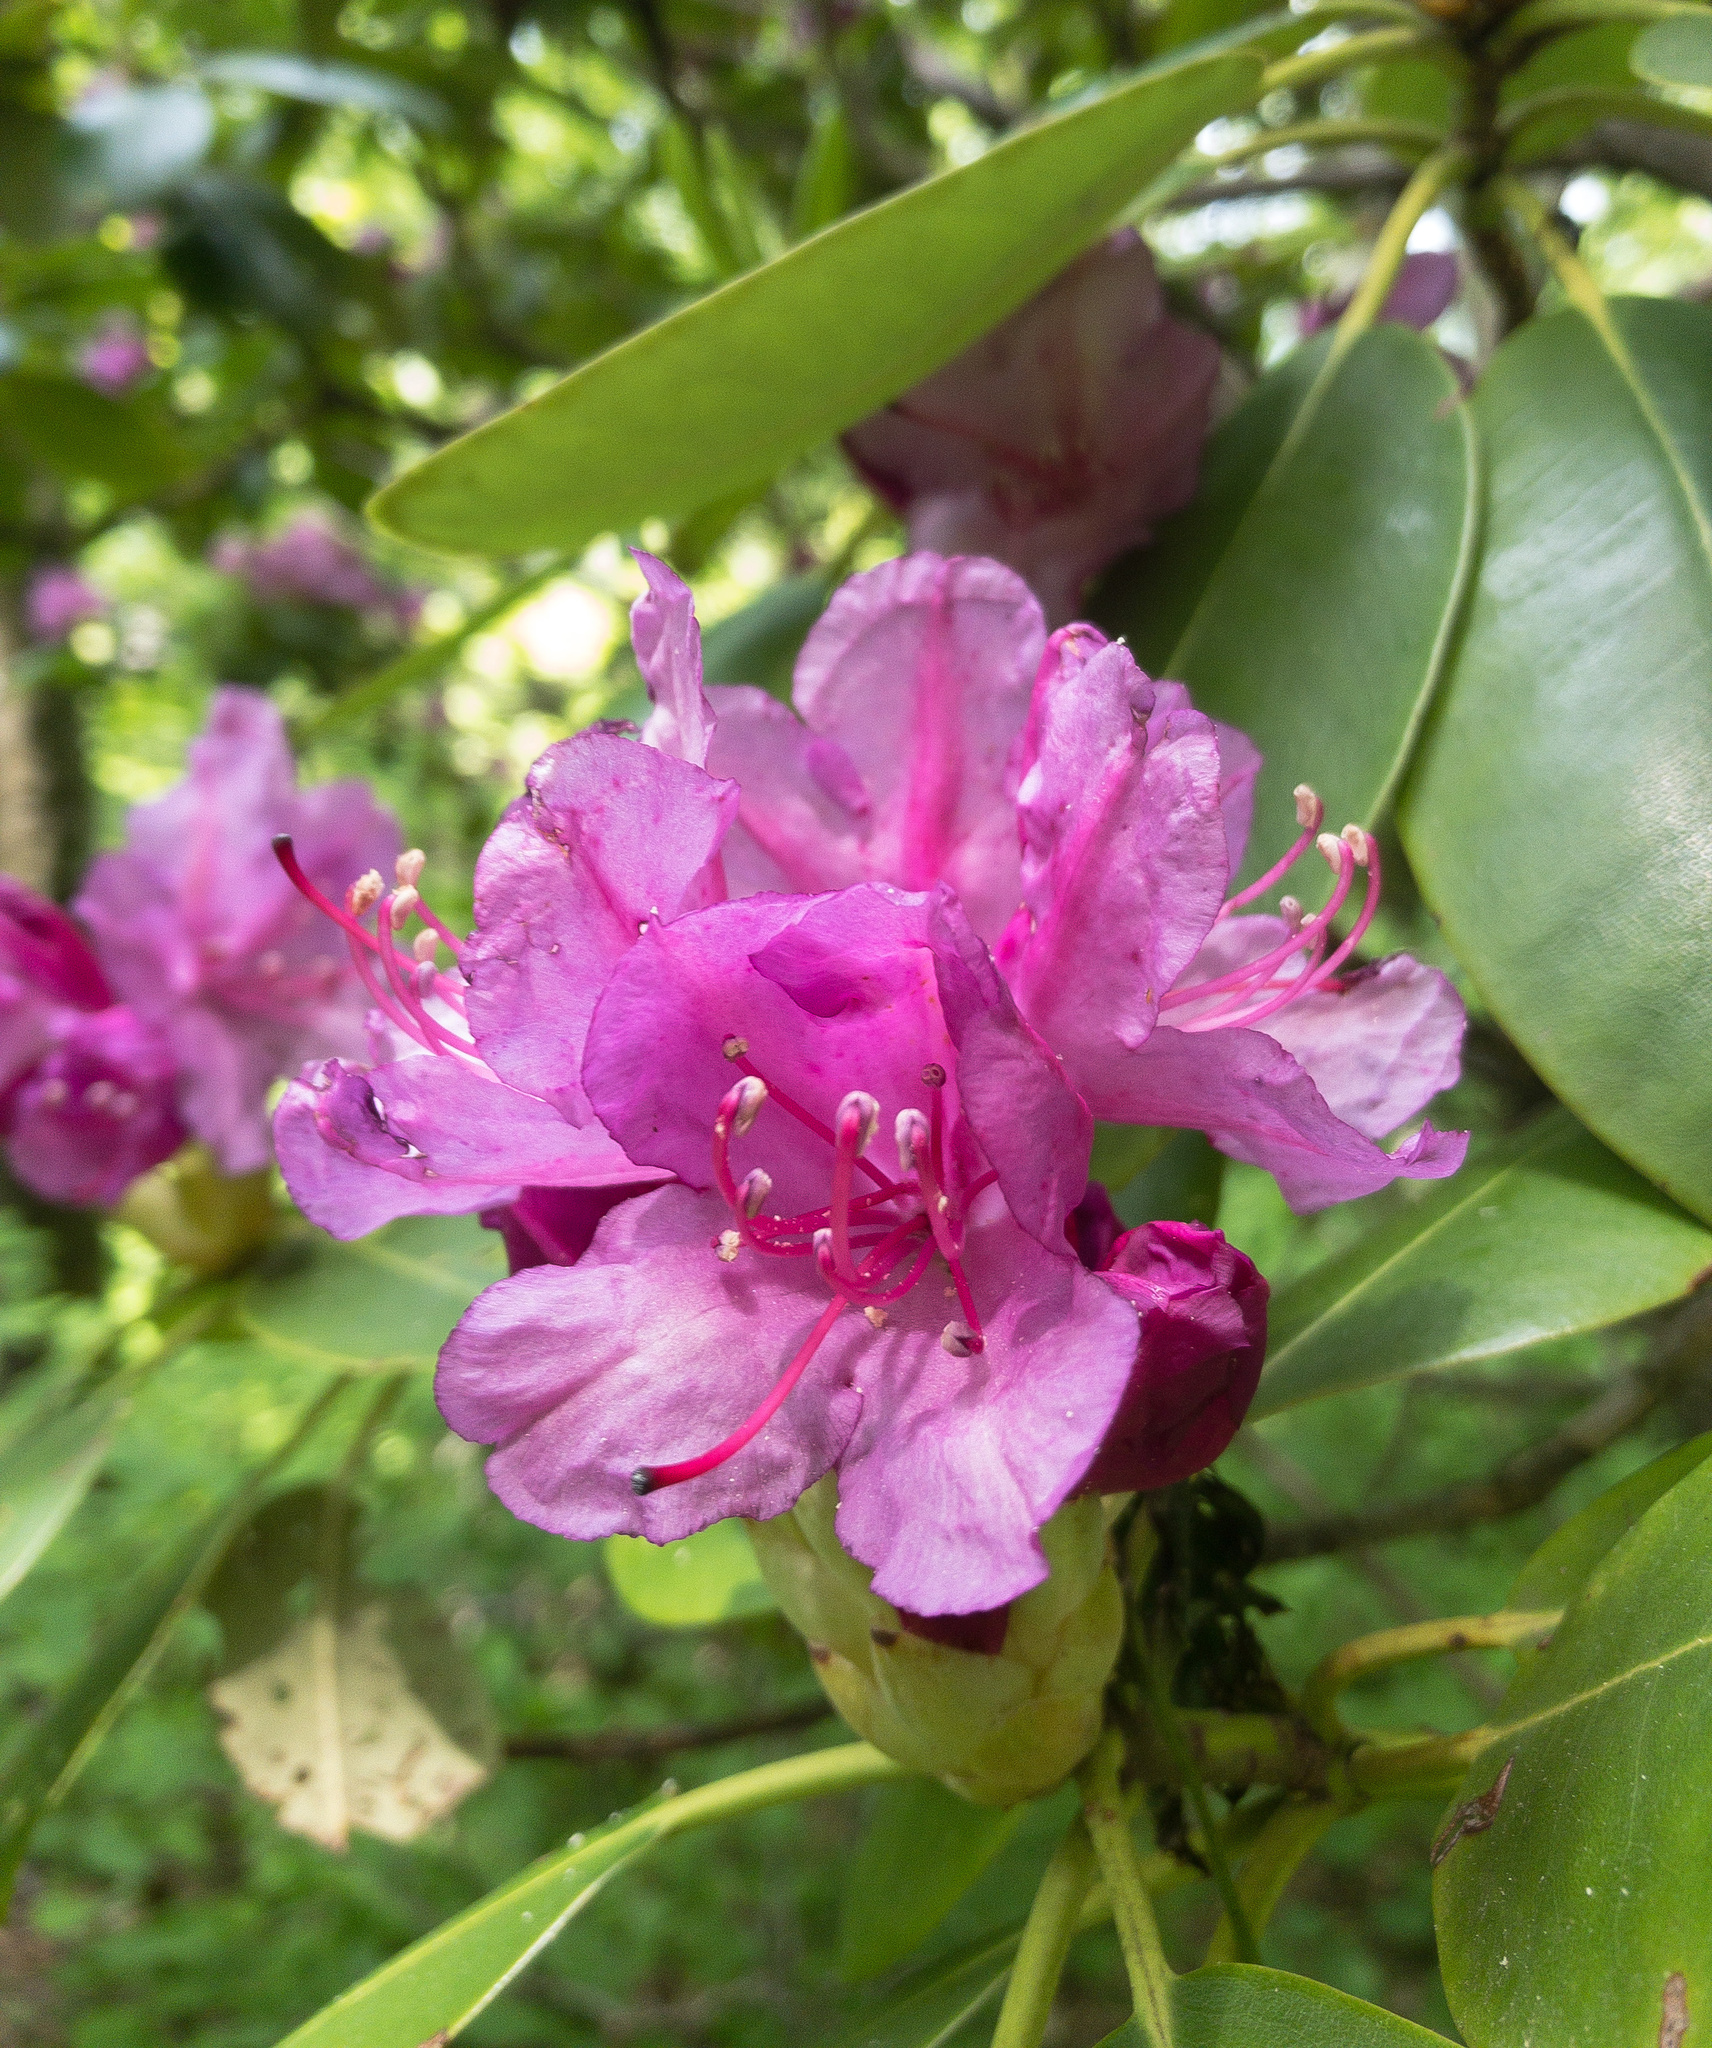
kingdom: Plantae
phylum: Tracheophyta
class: Magnoliopsida
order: Ericales
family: Ericaceae
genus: Rhododendron
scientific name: Rhododendron catawbiense
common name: Catawba rhododendron
